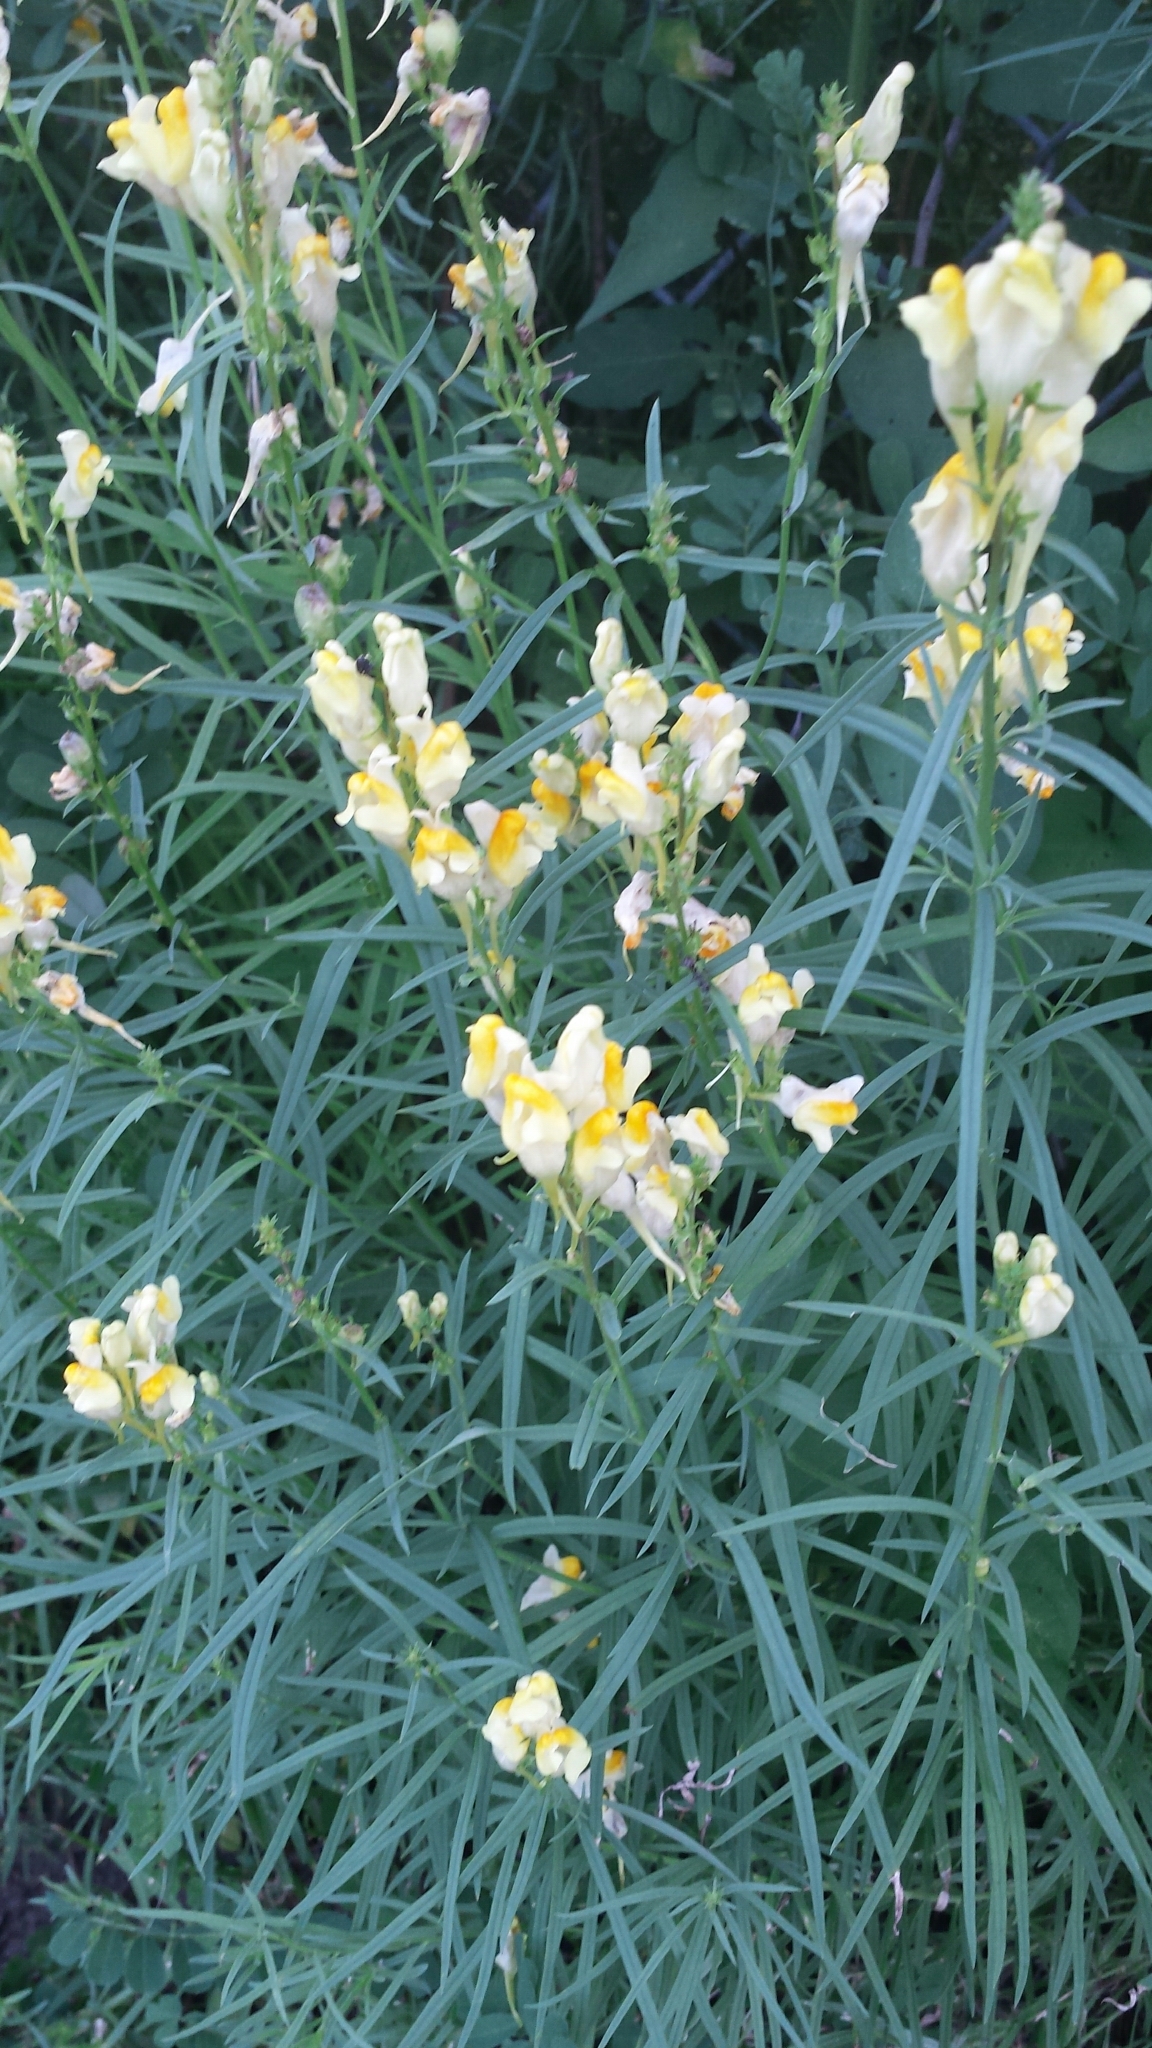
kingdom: Plantae
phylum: Tracheophyta
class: Magnoliopsida
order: Lamiales
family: Plantaginaceae
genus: Linaria
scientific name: Linaria vulgaris
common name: Butter and eggs
